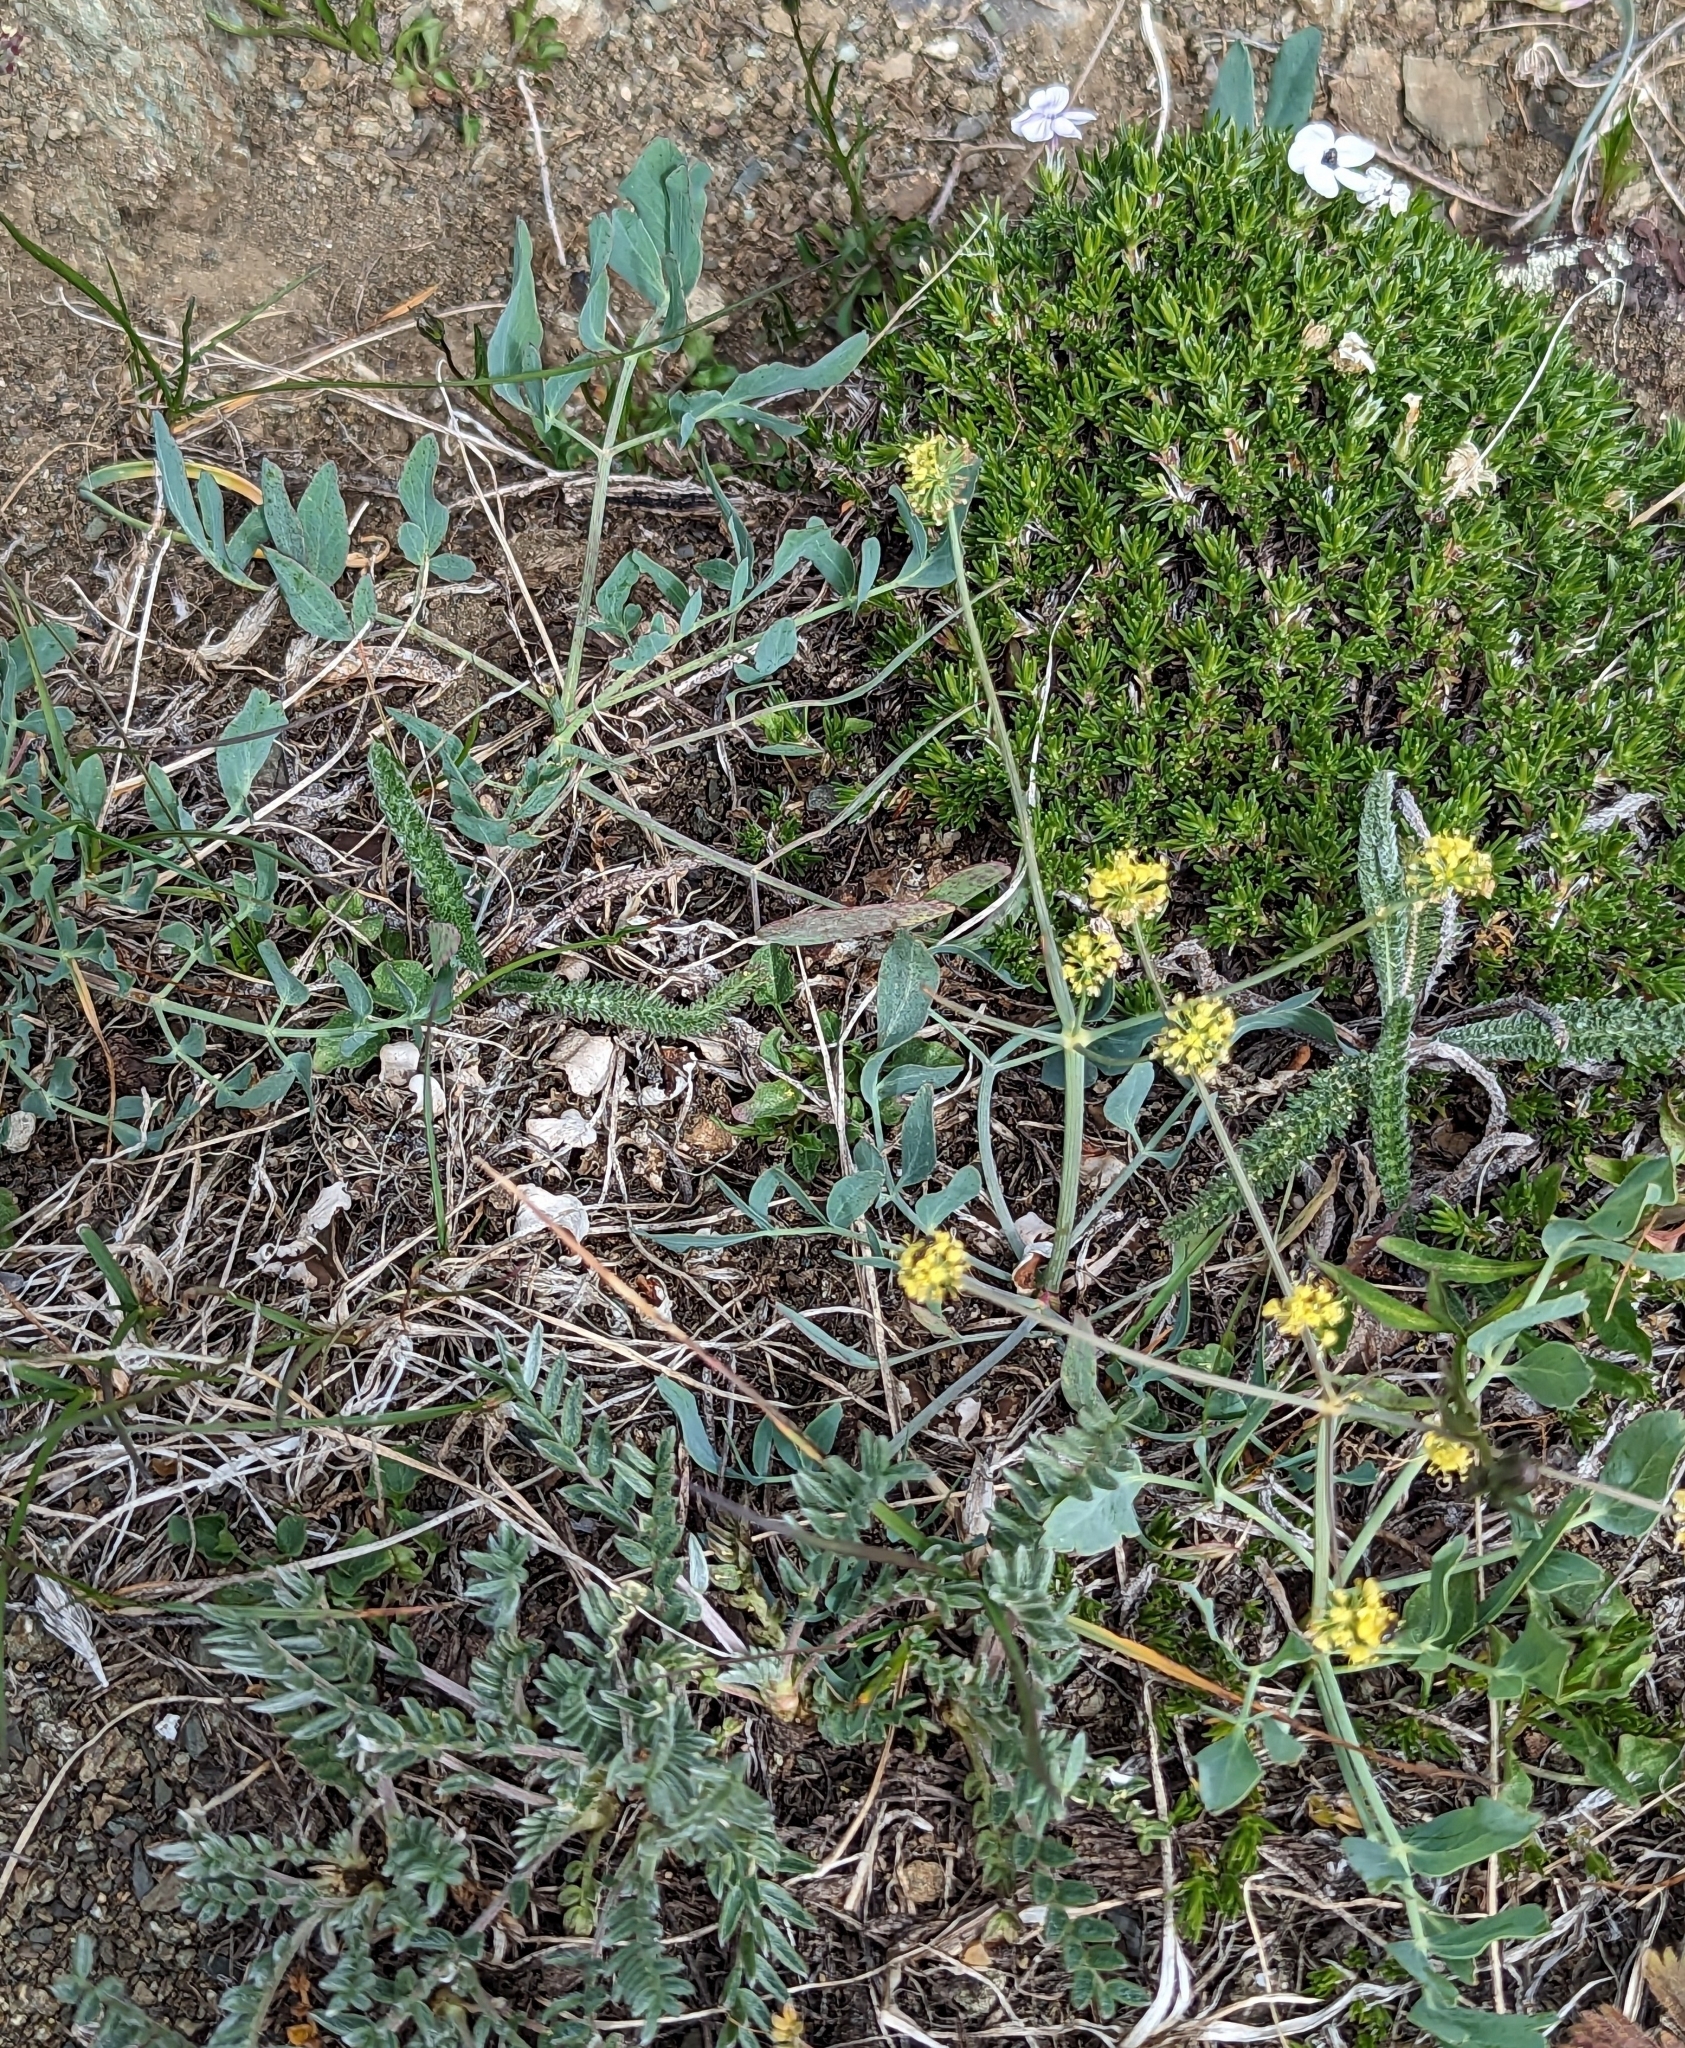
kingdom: Plantae
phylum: Tracheophyta
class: Magnoliopsida
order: Apiales
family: Apiaceae
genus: Lomatium
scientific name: Lomatium nudicaule
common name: Pestle lomatium
